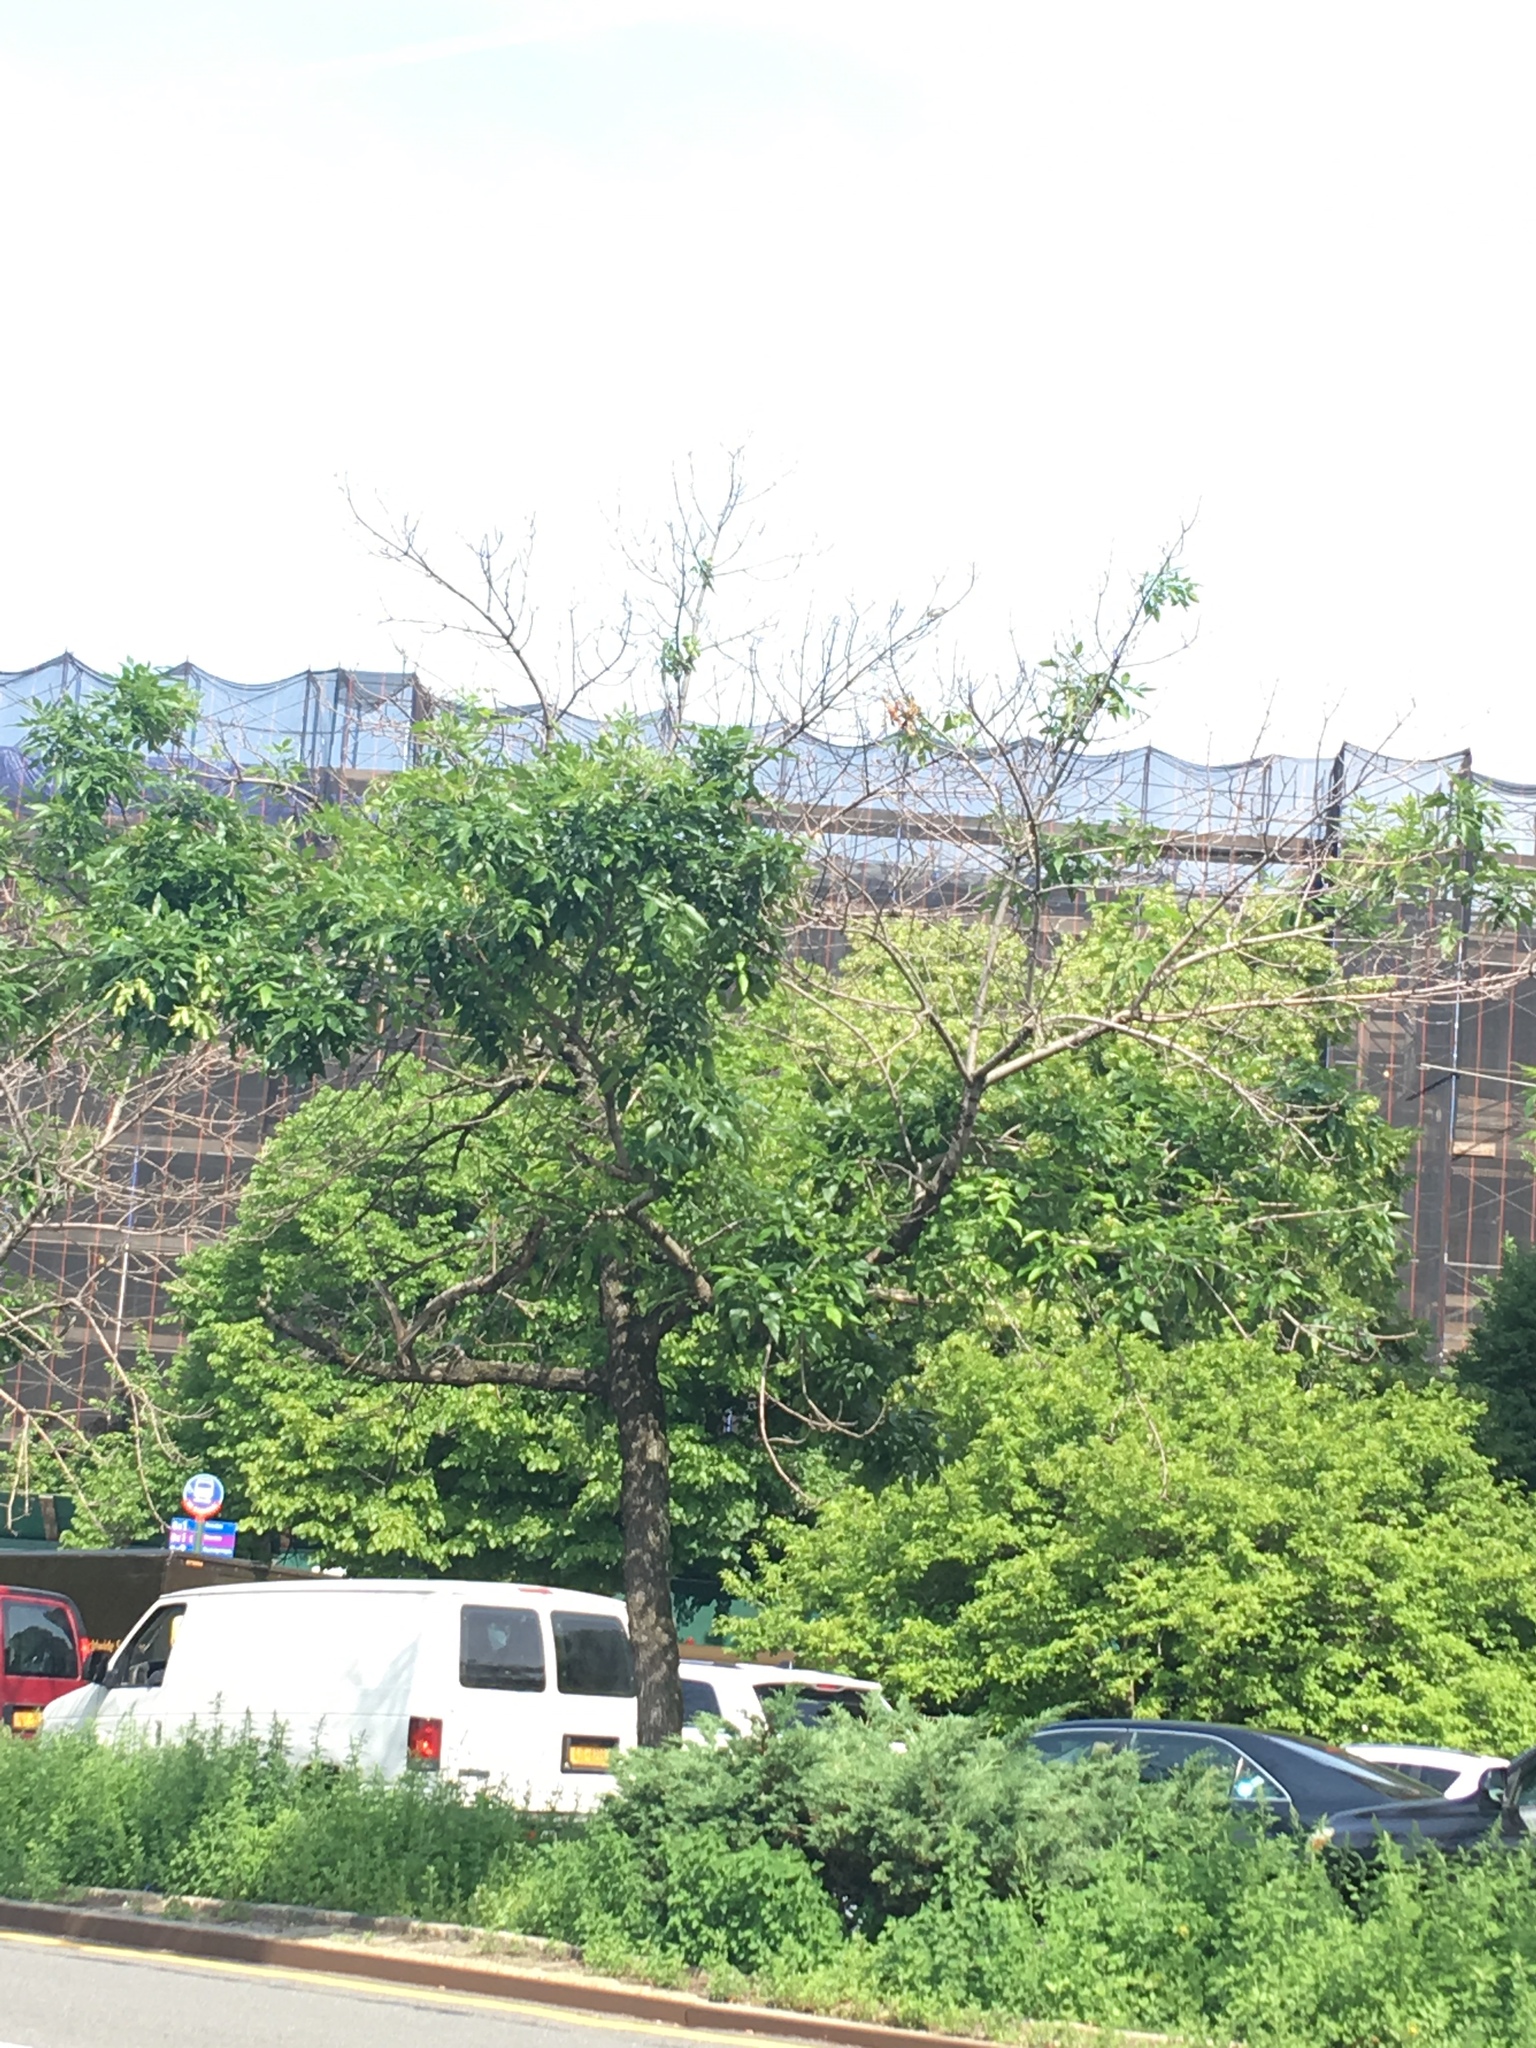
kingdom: Plantae
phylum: Tracheophyta
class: Magnoliopsida
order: Lamiales
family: Oleaceae
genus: Fraxinus
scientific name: Fraxinus pennsylvanica
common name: Green ash
